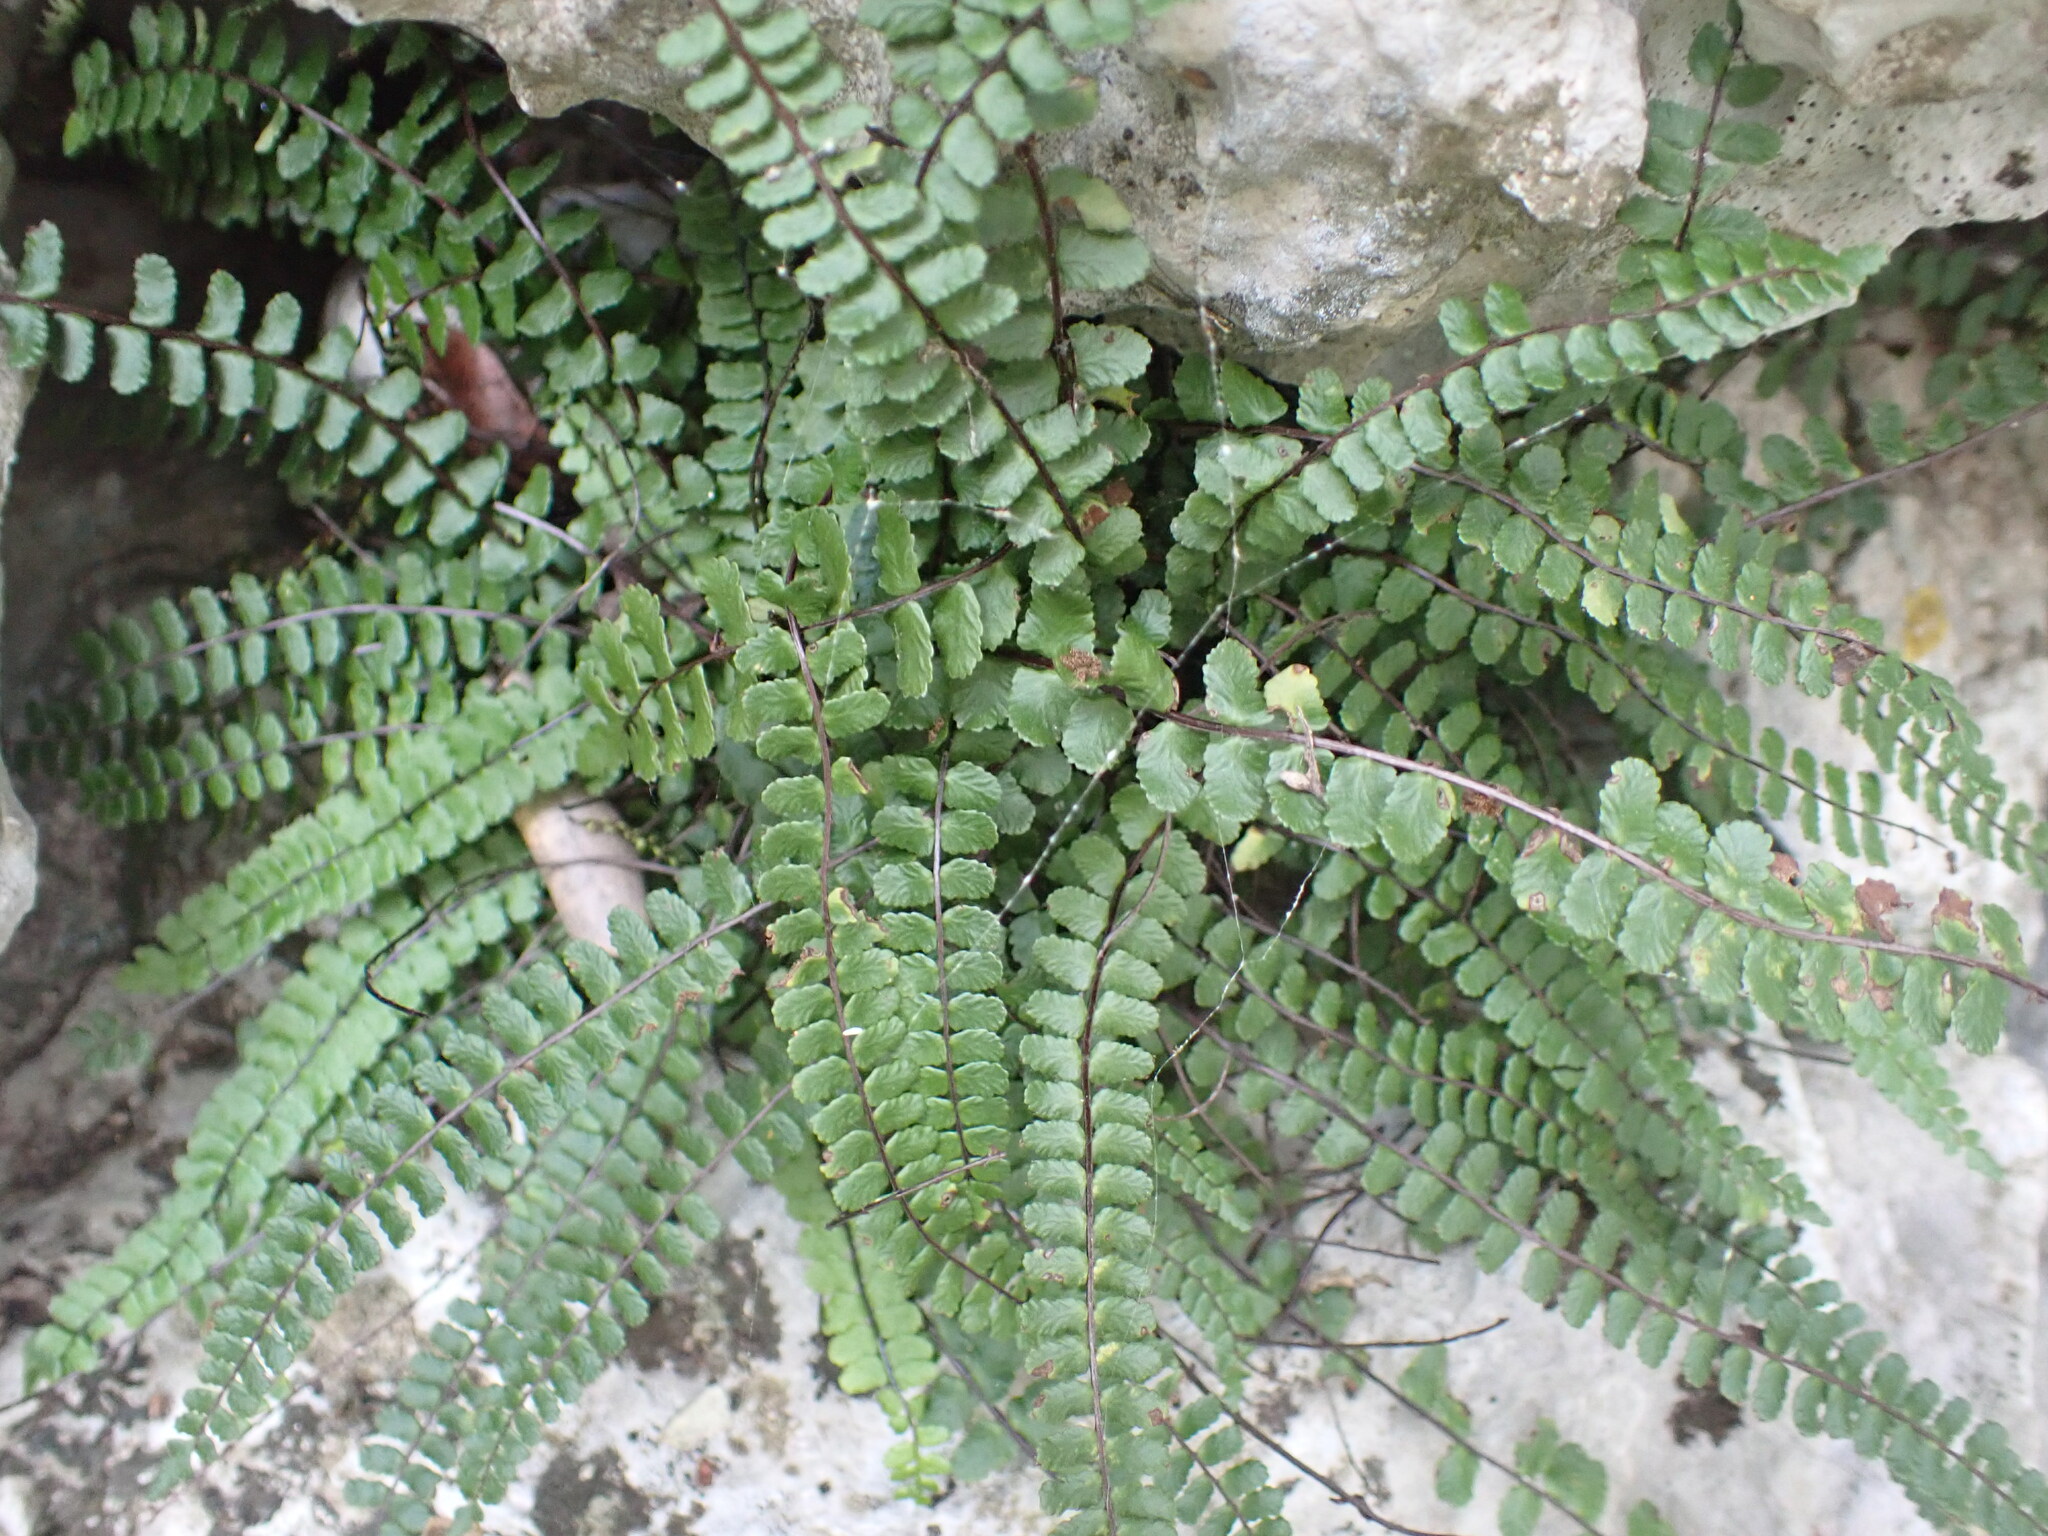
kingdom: Plantae
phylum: Tracheophyta
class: Polypodiopsida
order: Polypodiales
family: Aspleniaceae
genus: Asplenium
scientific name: Asplenium trichomanes
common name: Maidenhair spleenwort
